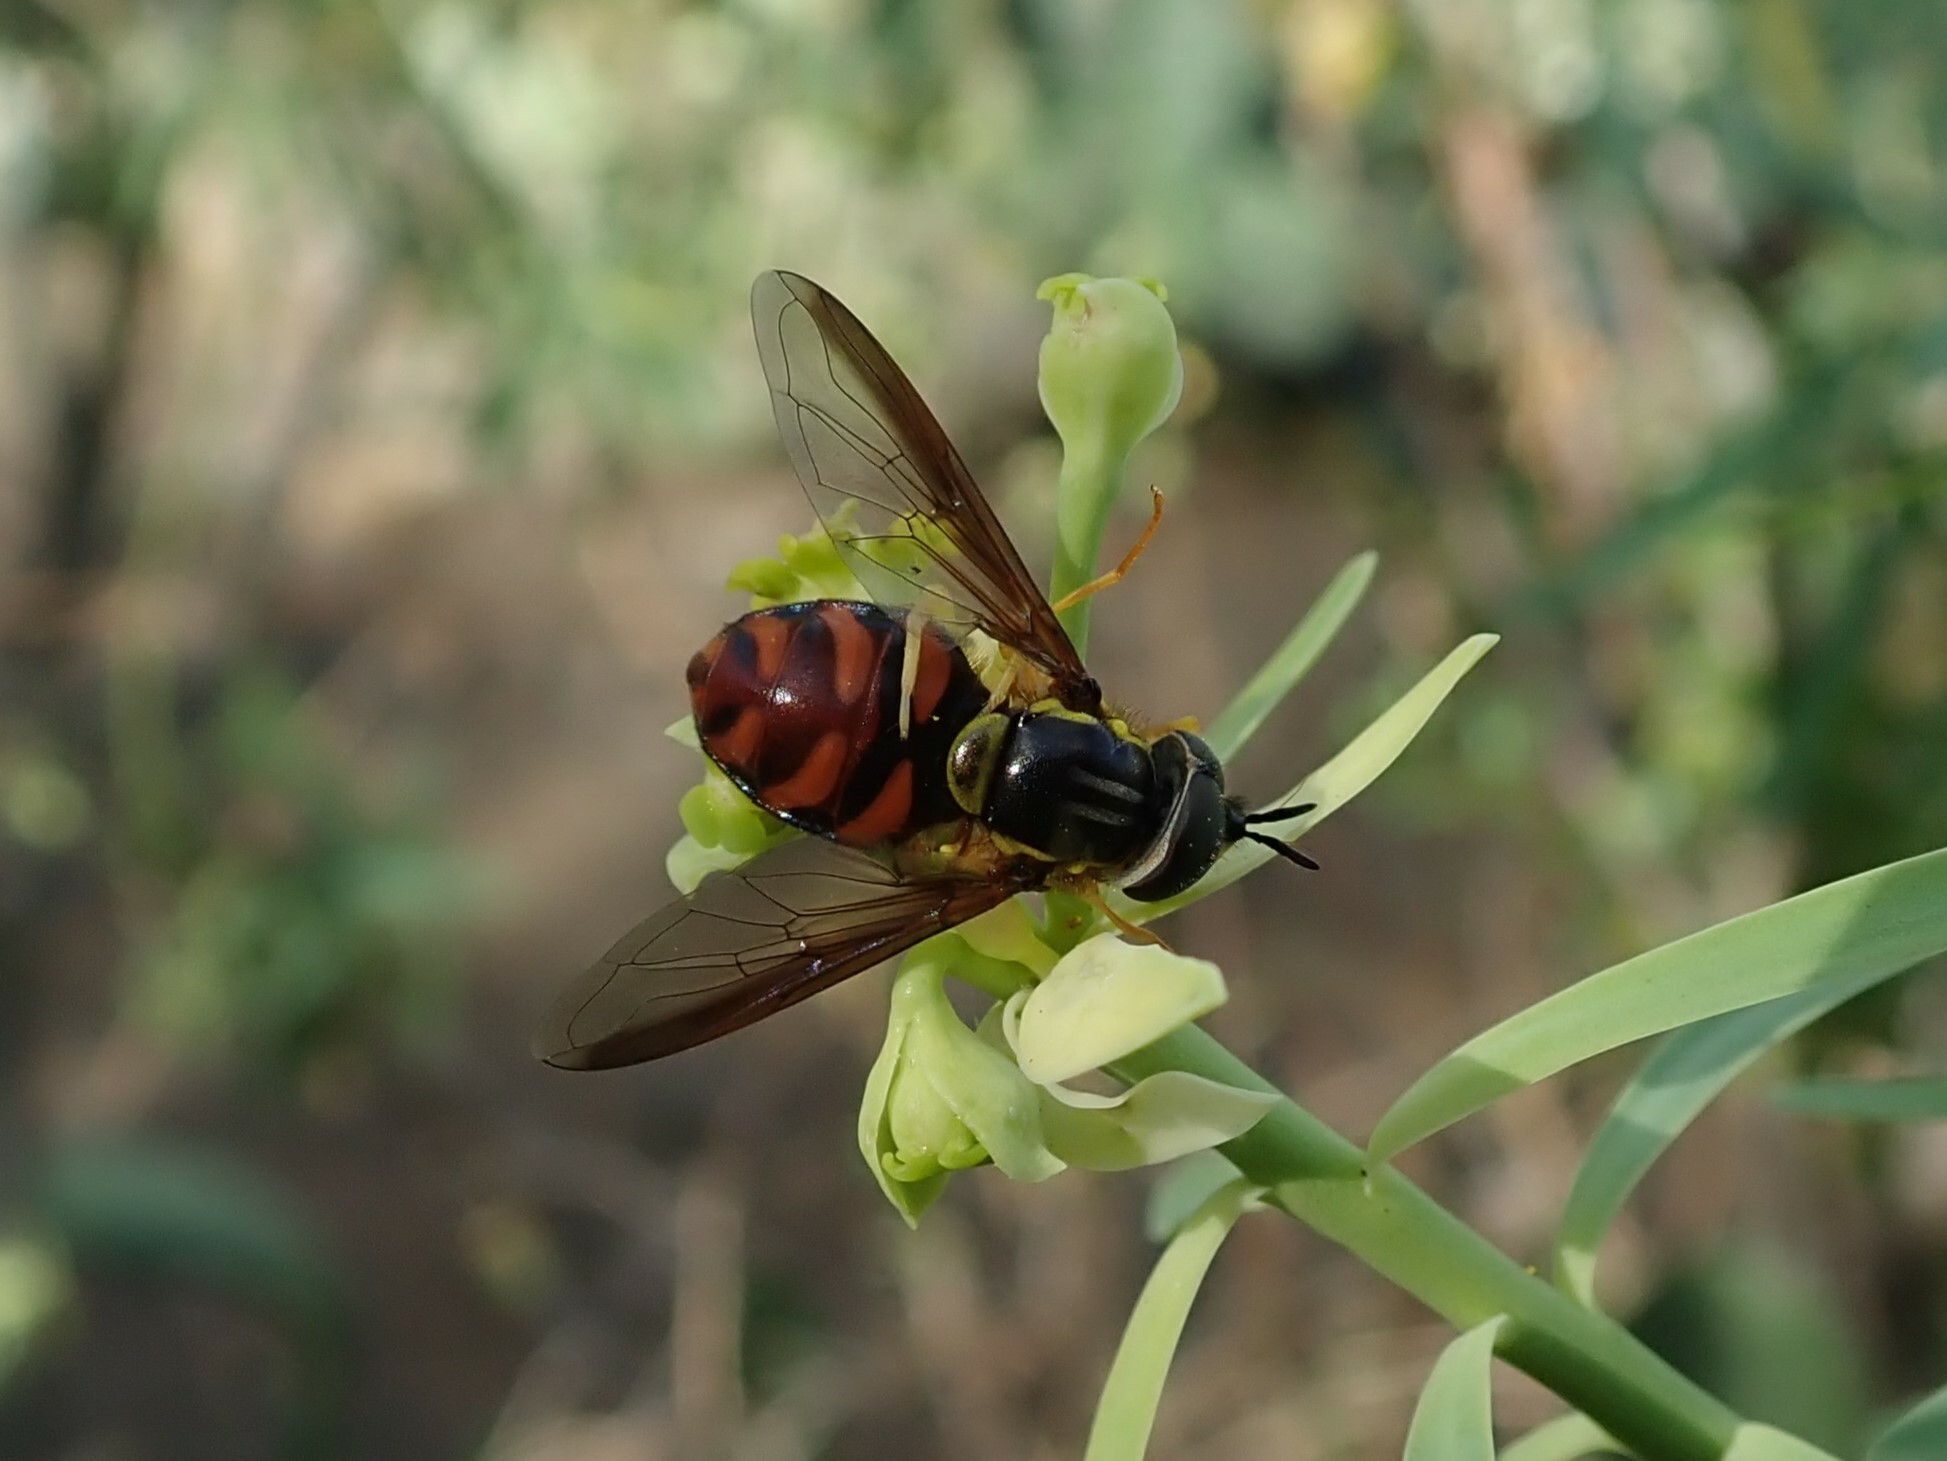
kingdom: Animalia
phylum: Arthropoda
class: Insecta
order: Diptera
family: Syrphidae
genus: Chrysotoxum
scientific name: Chrysotoxum triarcuatum
